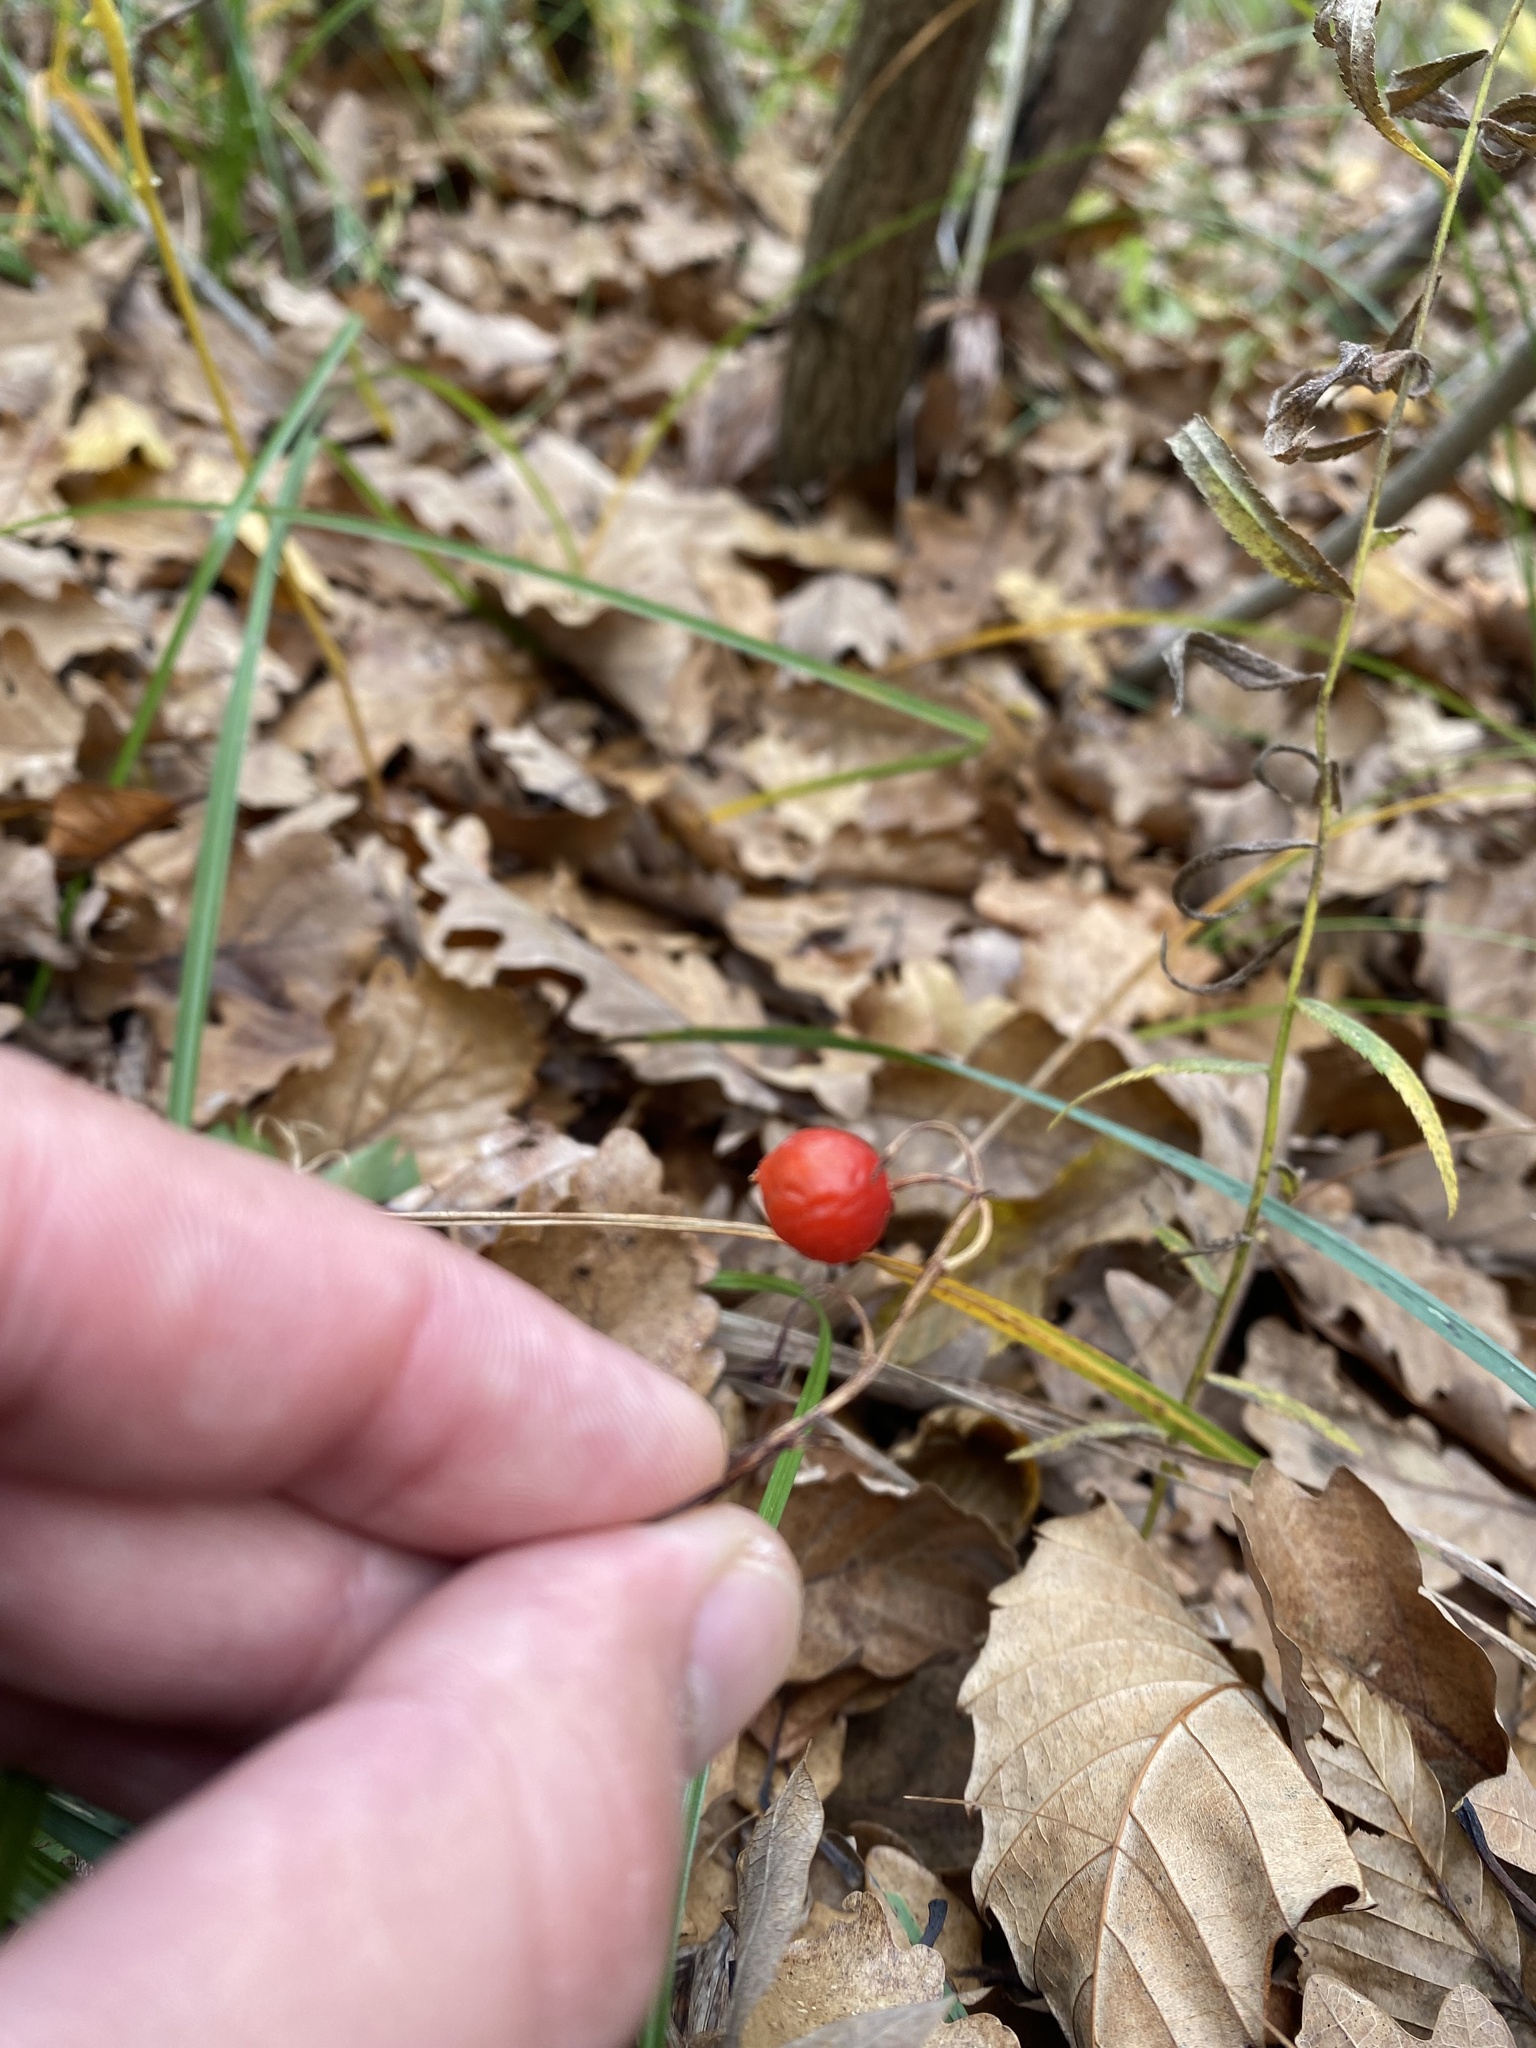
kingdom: Plantae
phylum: Tracheophyta
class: Liliopsida
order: Asparagales
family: Asparagaceae
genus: Convallaria
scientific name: Convallaria majalis
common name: Lily-of-the-valley
